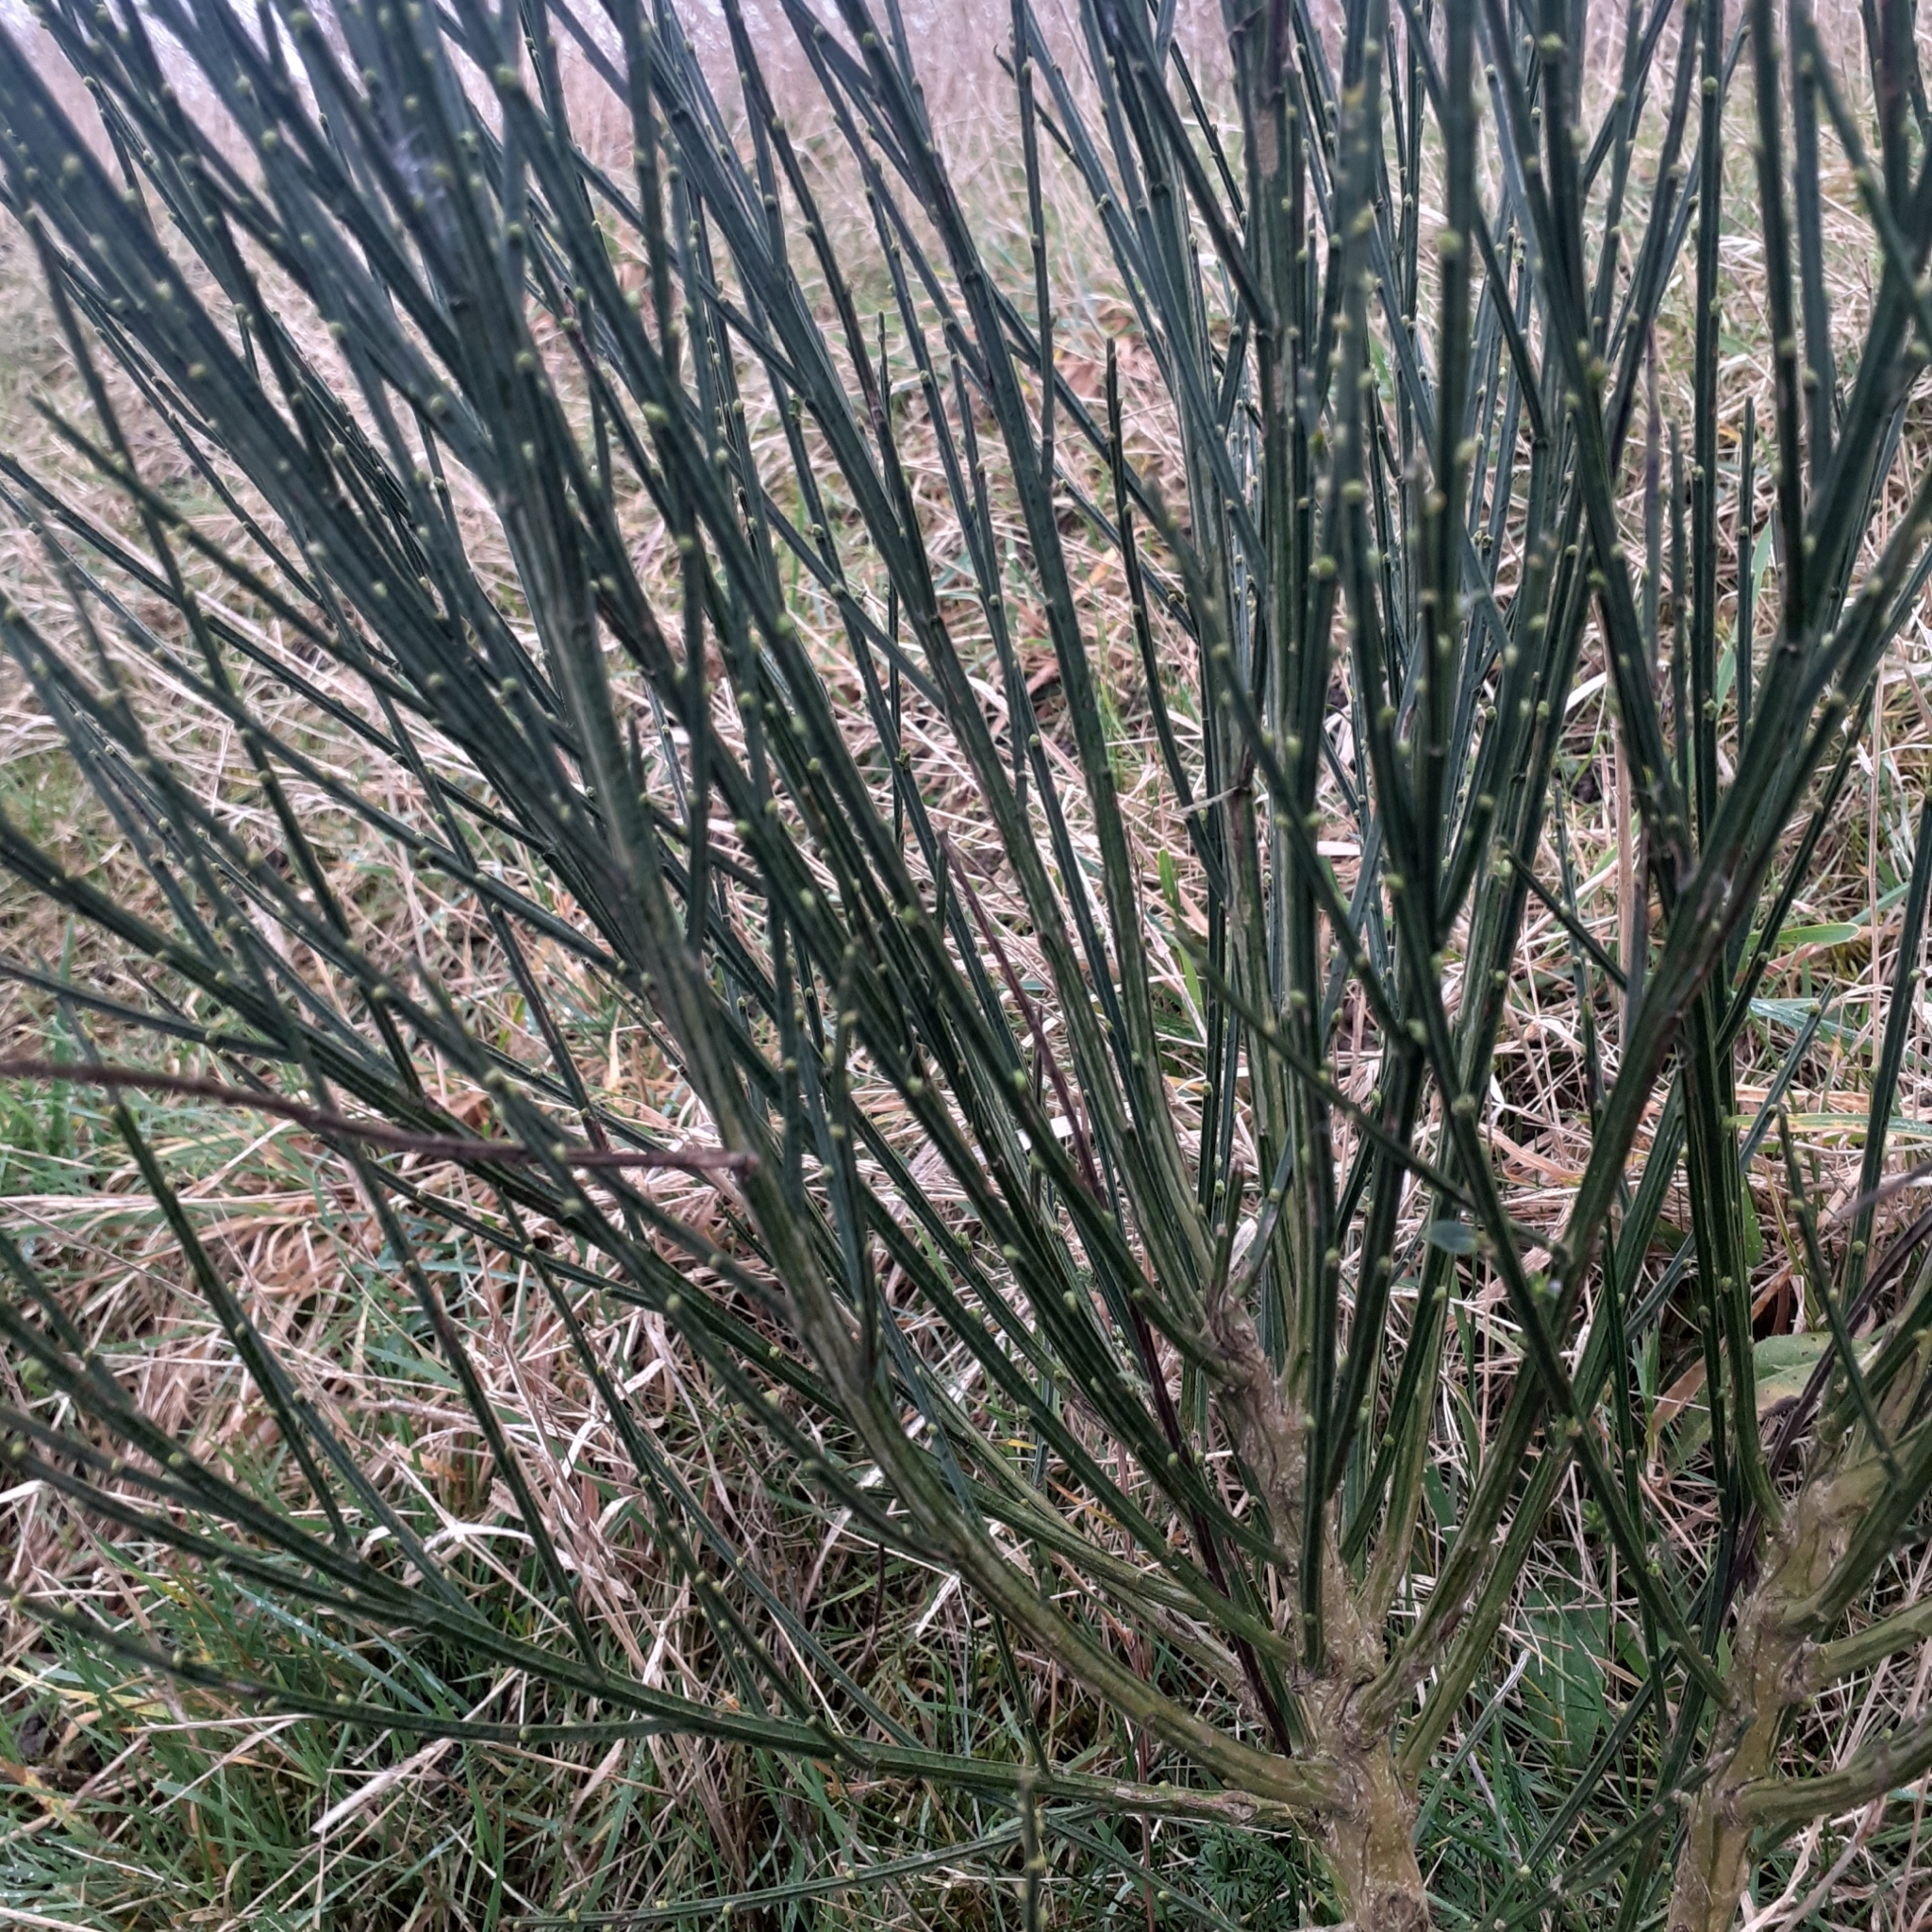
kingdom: Plantae
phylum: Tracheophyta
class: Magnoliopsida
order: Fabales
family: Fabaceae
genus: Cytisus
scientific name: Cytisus scoparius
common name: Scotch broom
